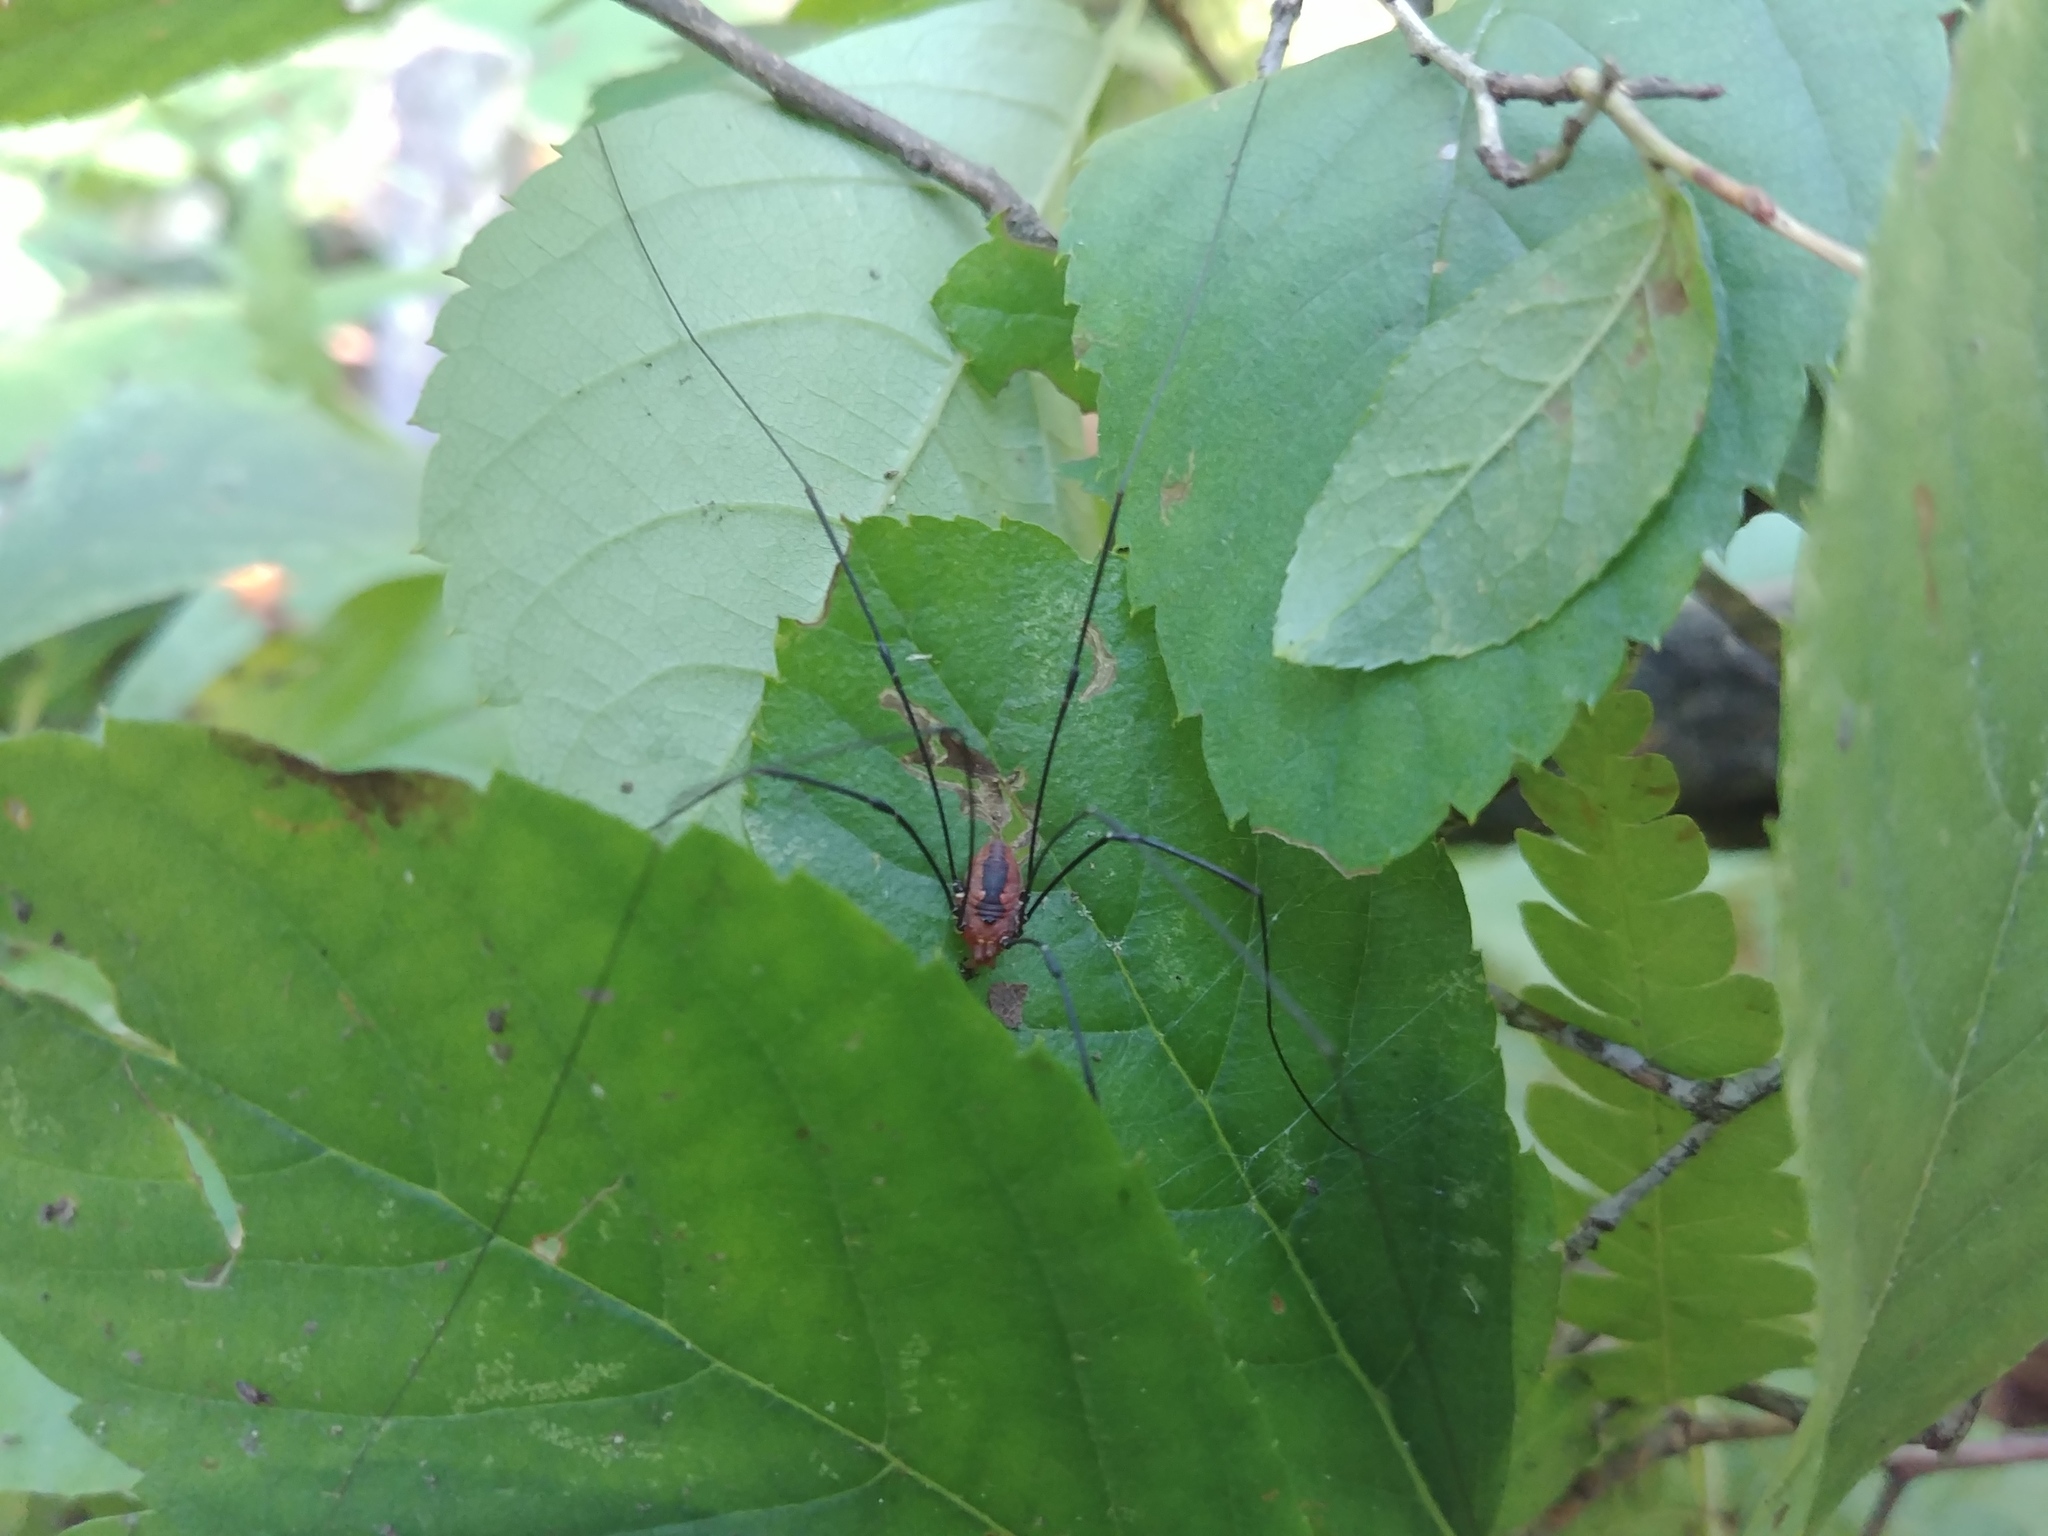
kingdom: Animalia
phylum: Arthropoda
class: Arachnida
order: Opiliones
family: Sclerosomatidae
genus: Leiobunum
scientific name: Leiobunum vittatum
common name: Eastern harvestman
